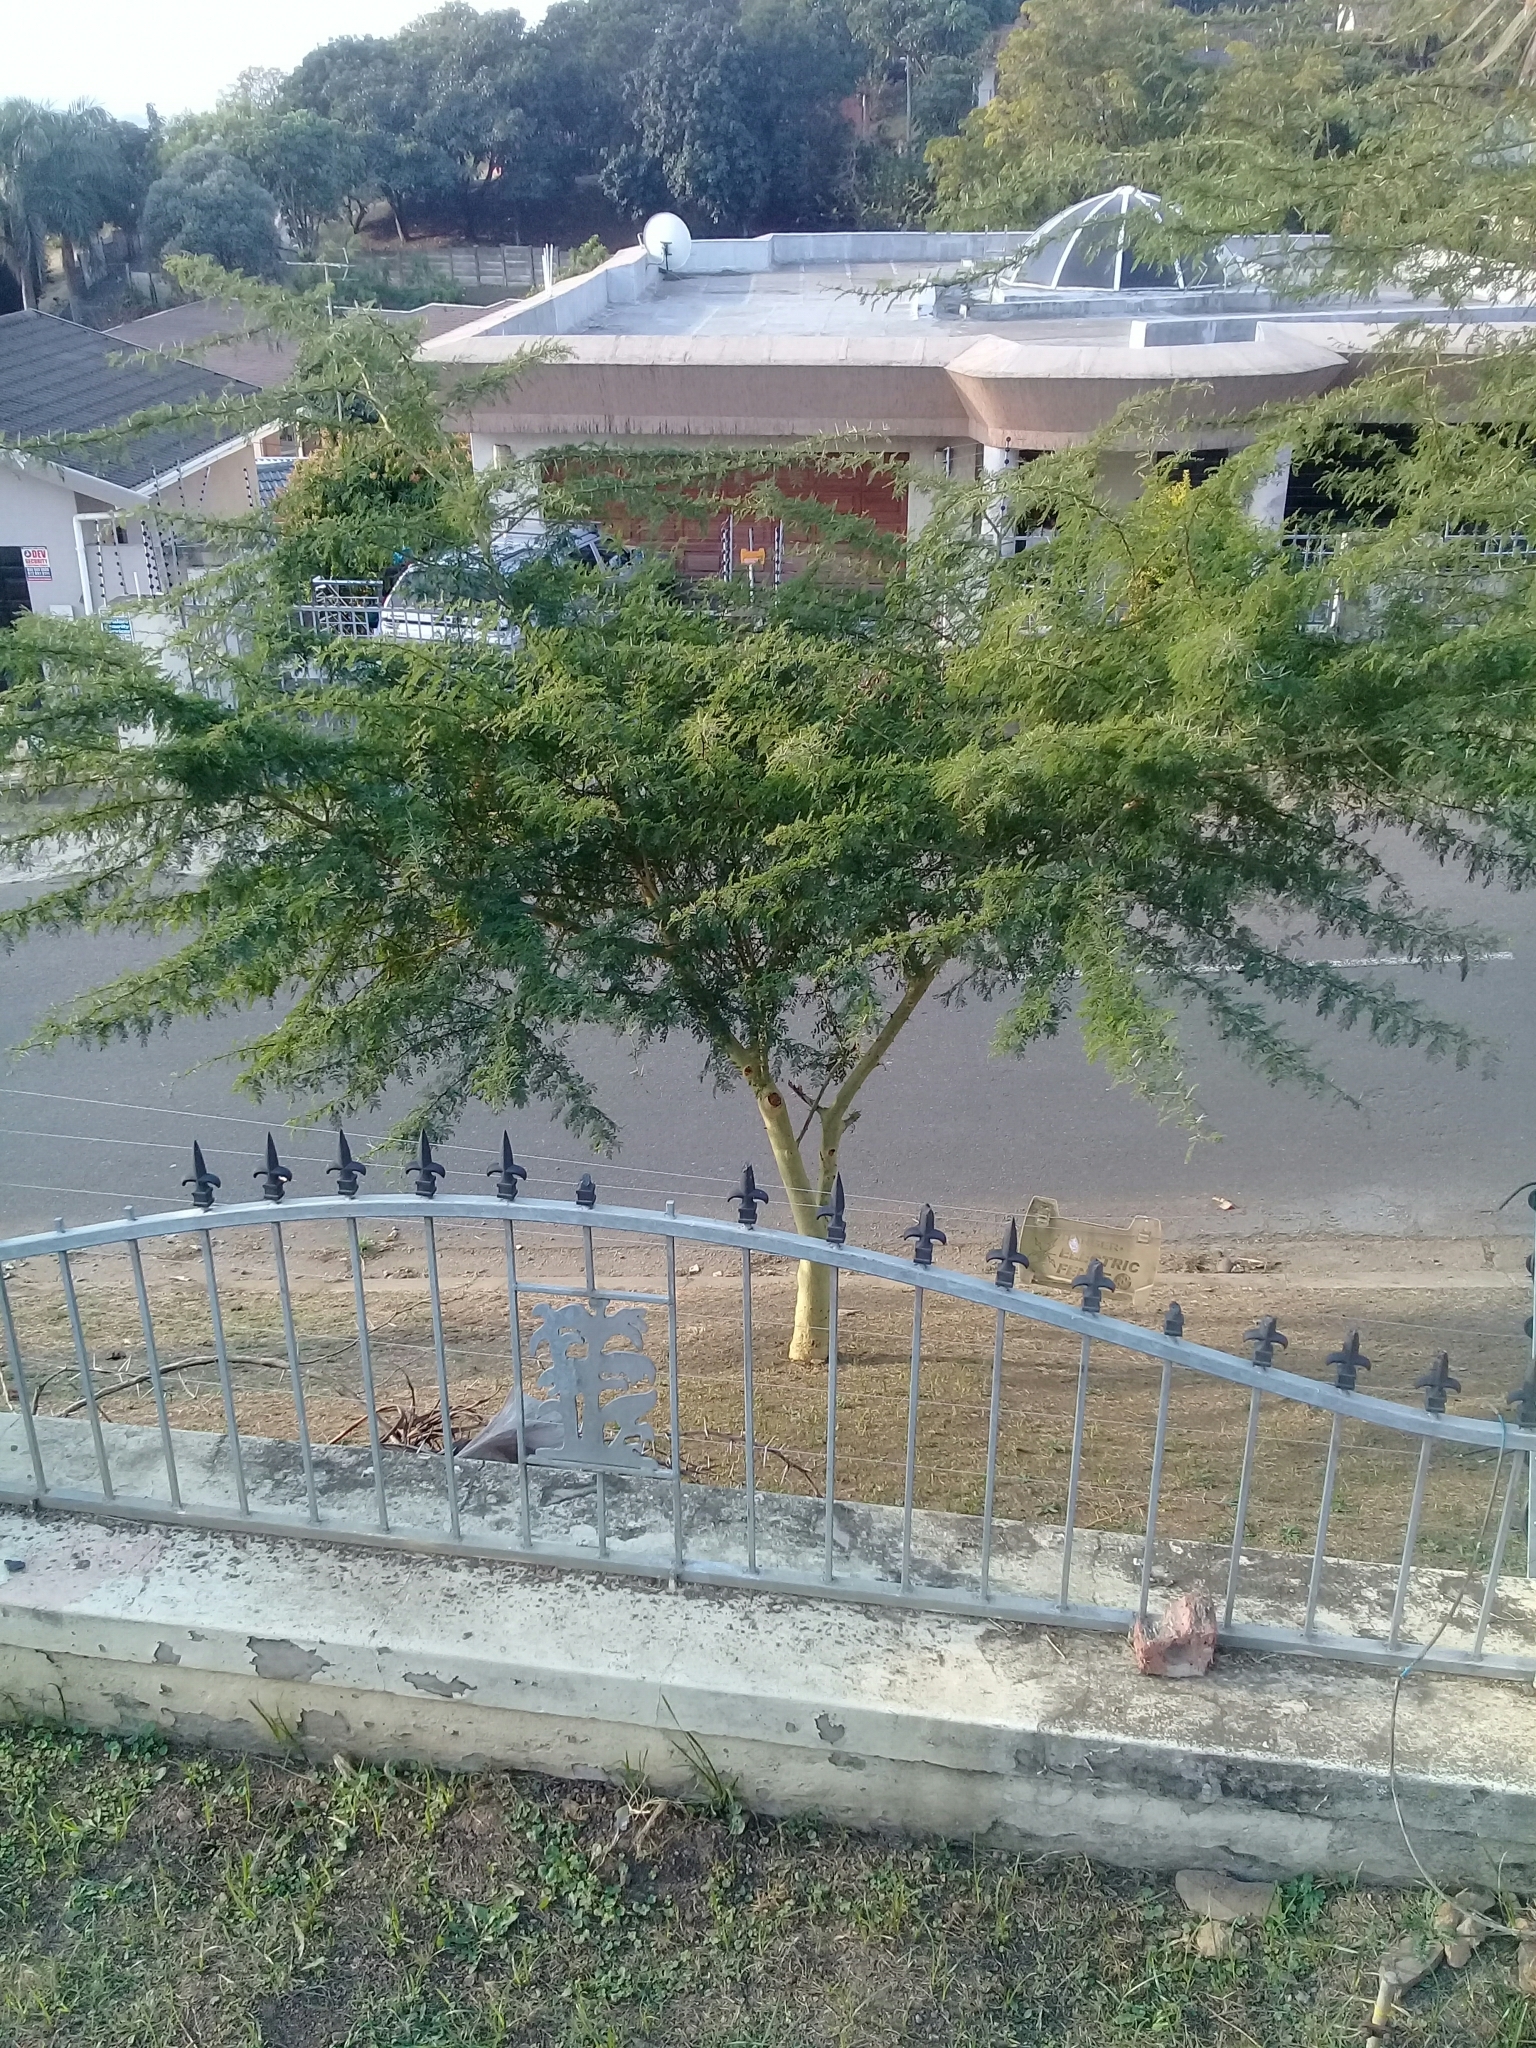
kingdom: Plantae
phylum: Tracheophyta
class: Magnoliopsida
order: Fabales
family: Fabaceae
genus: Vachellia
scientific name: Vachellia xanthophloea
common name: Fever tree
